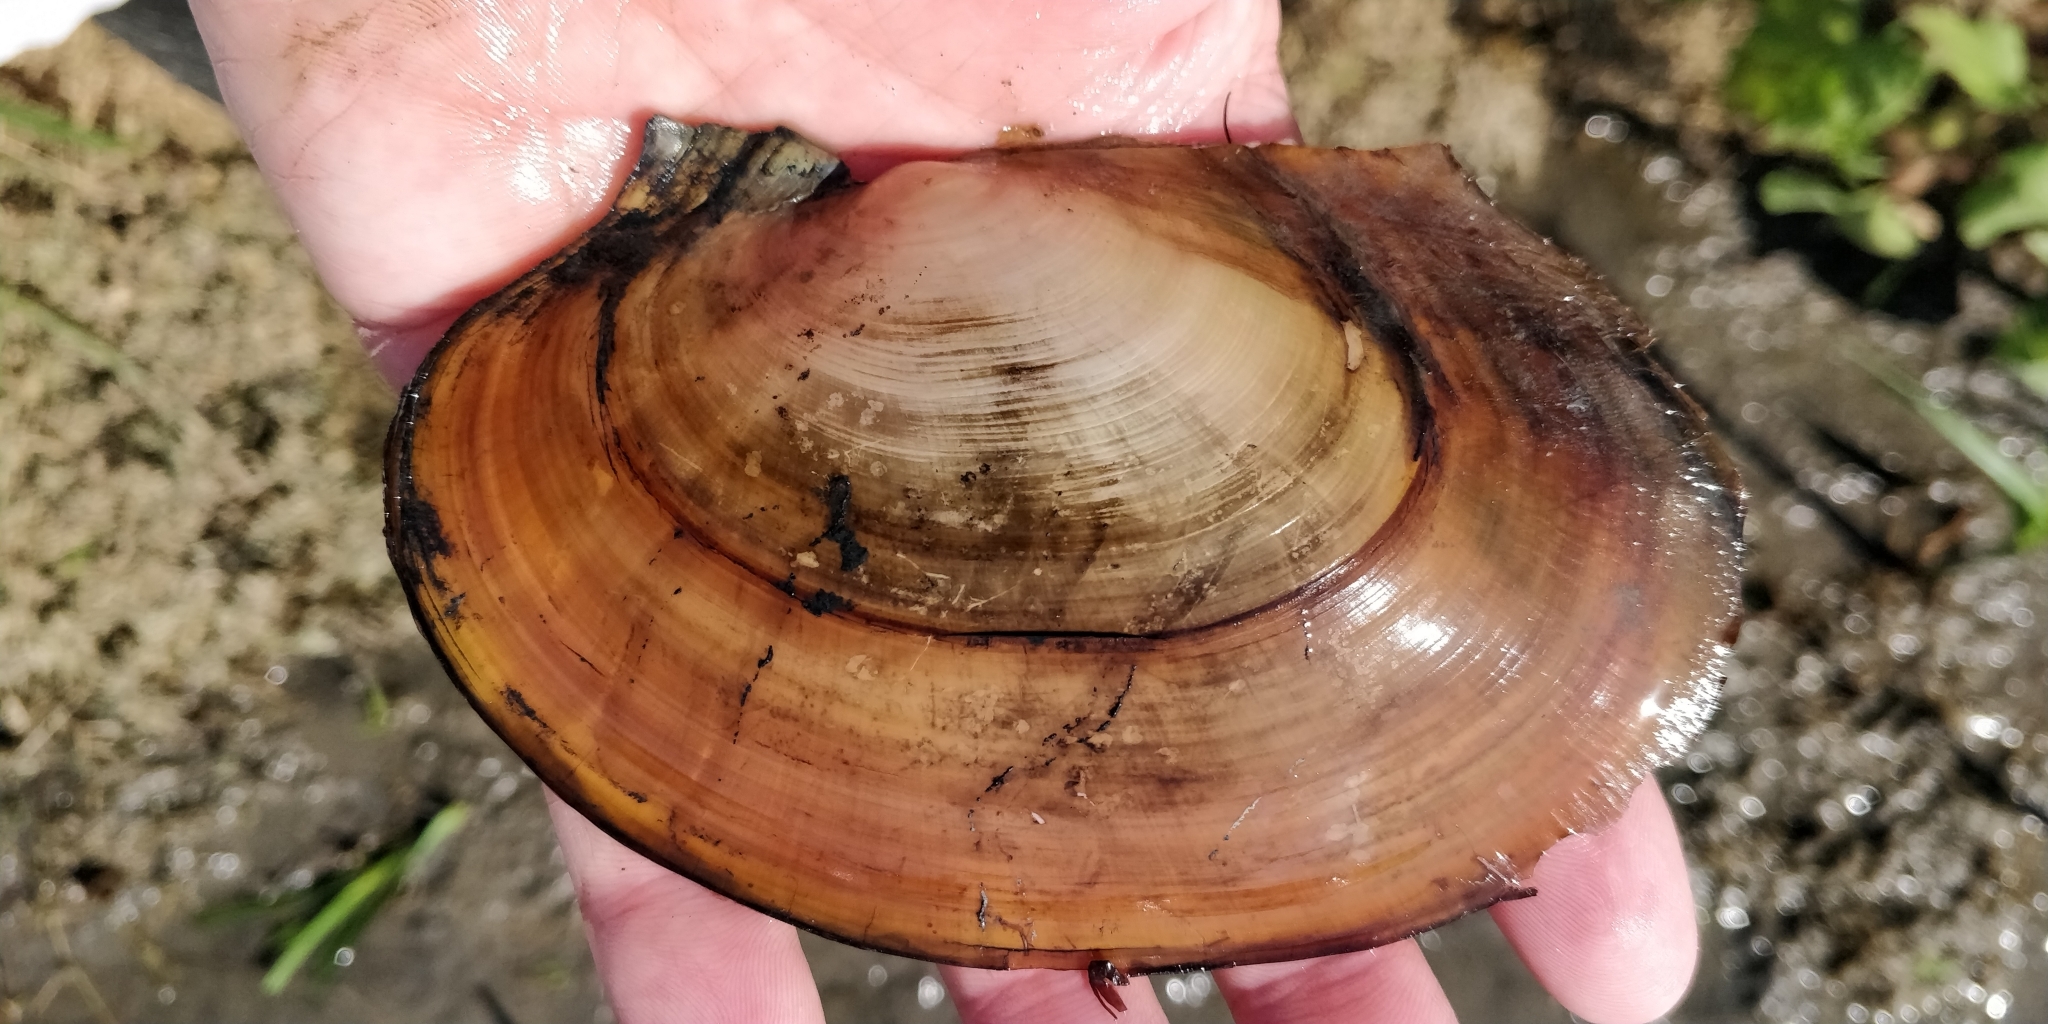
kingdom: Animalia
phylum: Mollusca
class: Bivalvia
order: Unionida
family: Unionidae
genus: Potamilus
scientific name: Potamilus ohiensis
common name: Pink papershell
